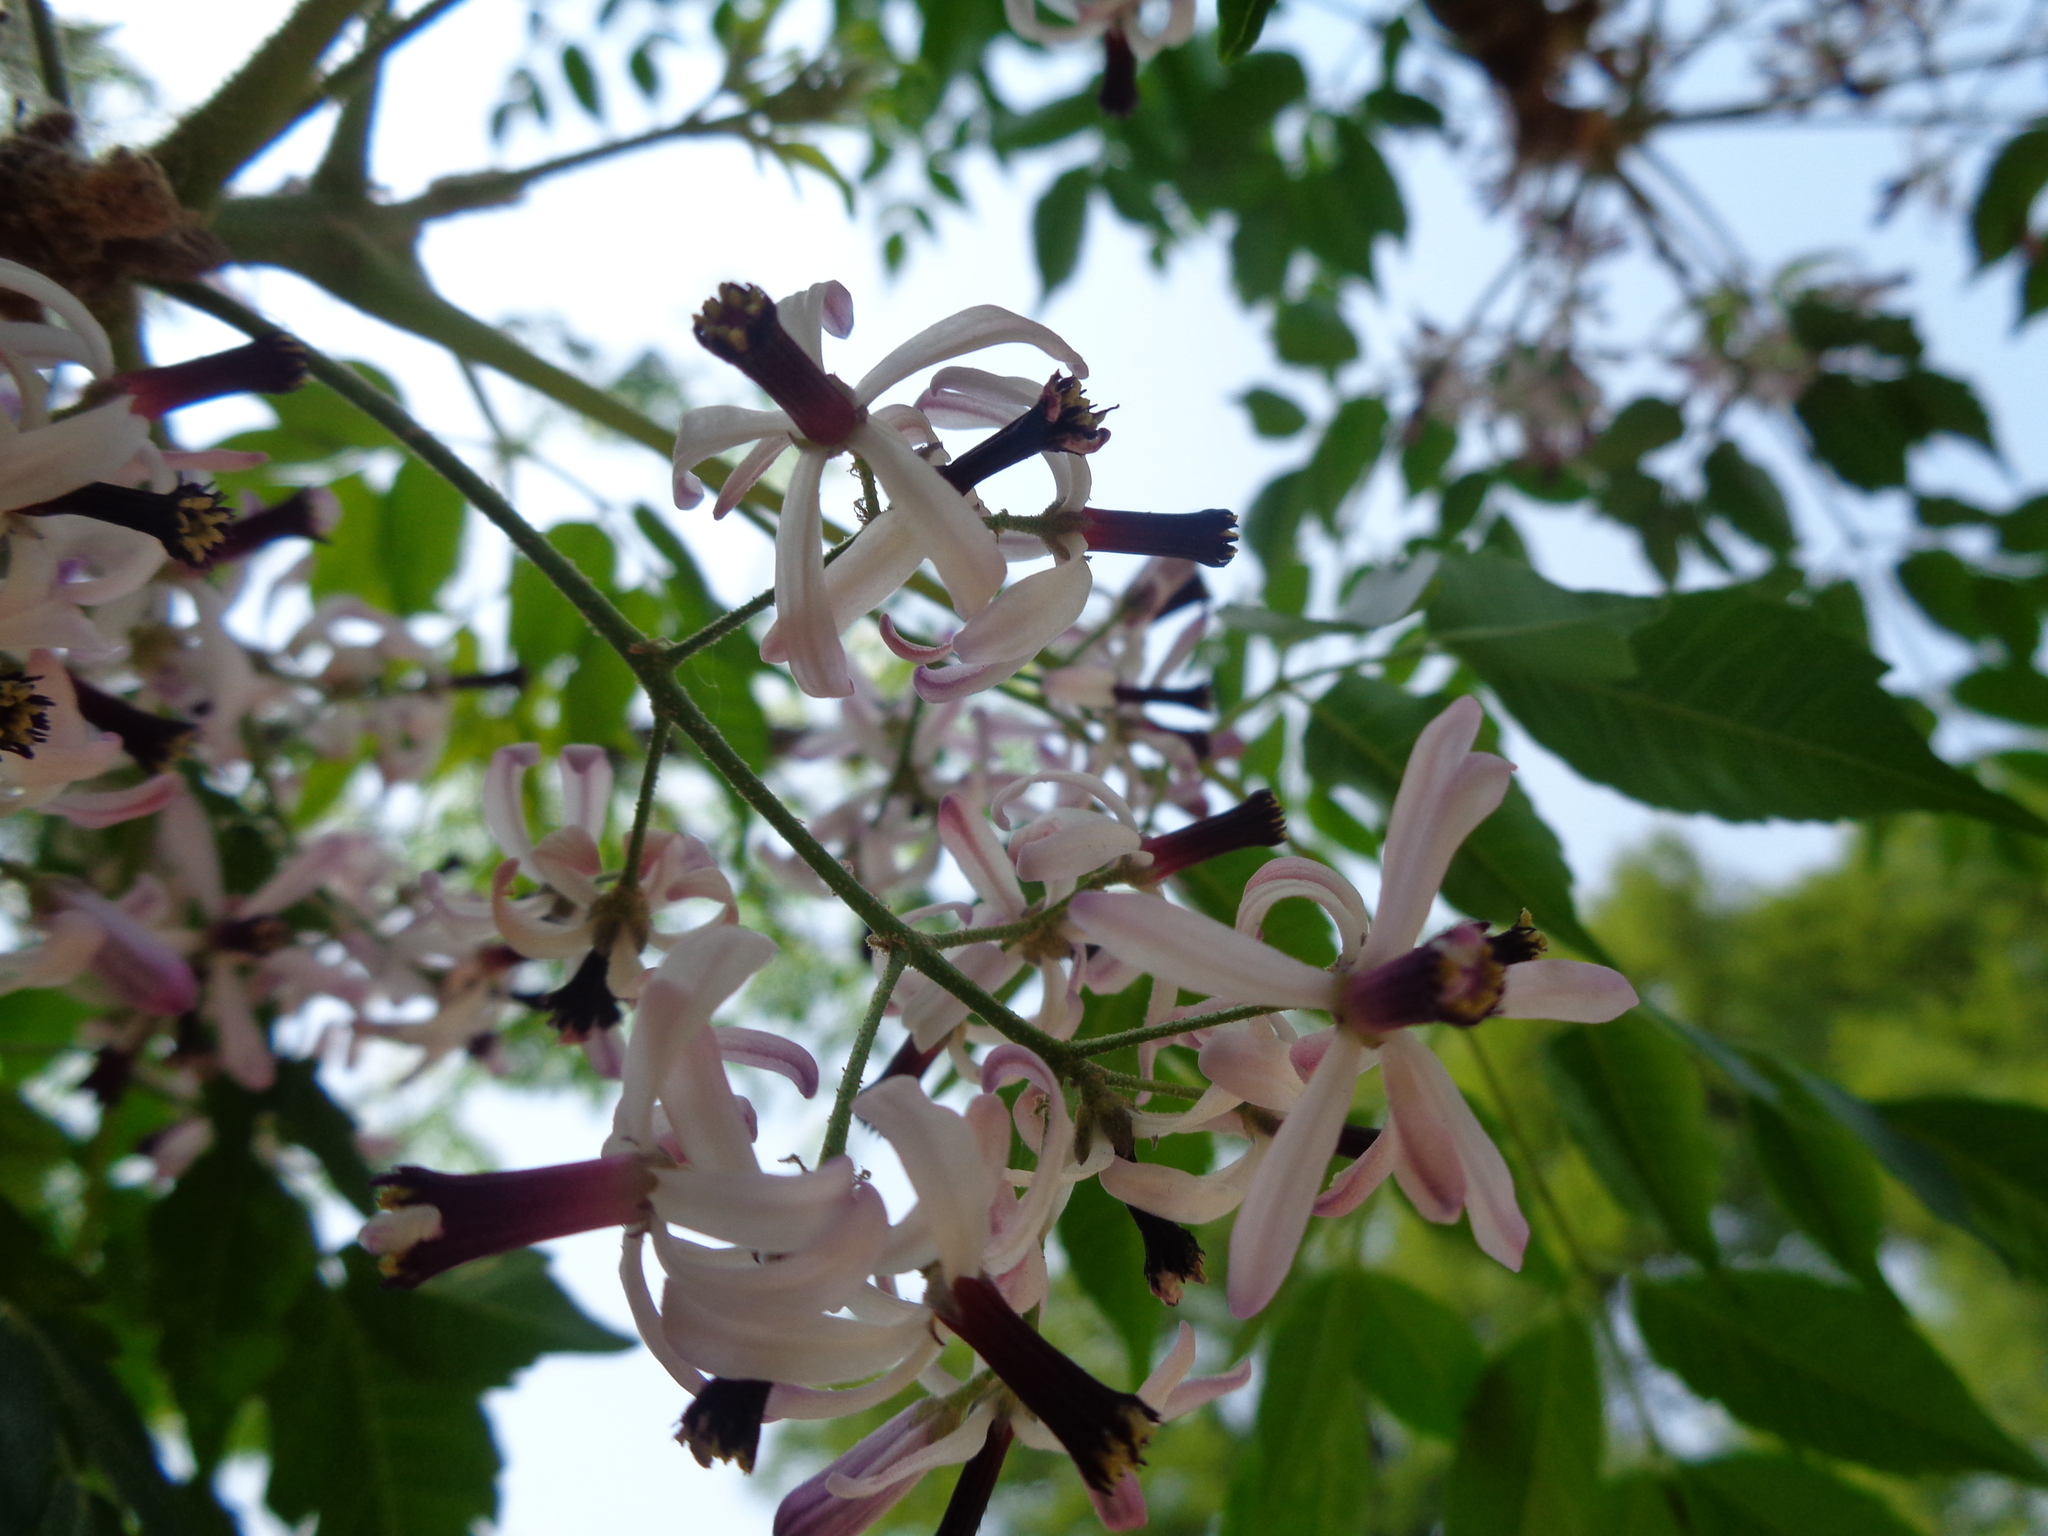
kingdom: Plantae
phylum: Tracheophyta
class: Magnoliopsida
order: Sapindales
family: Meliaceae
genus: Melia
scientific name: Melia azedarach
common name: Chinaberrytree
